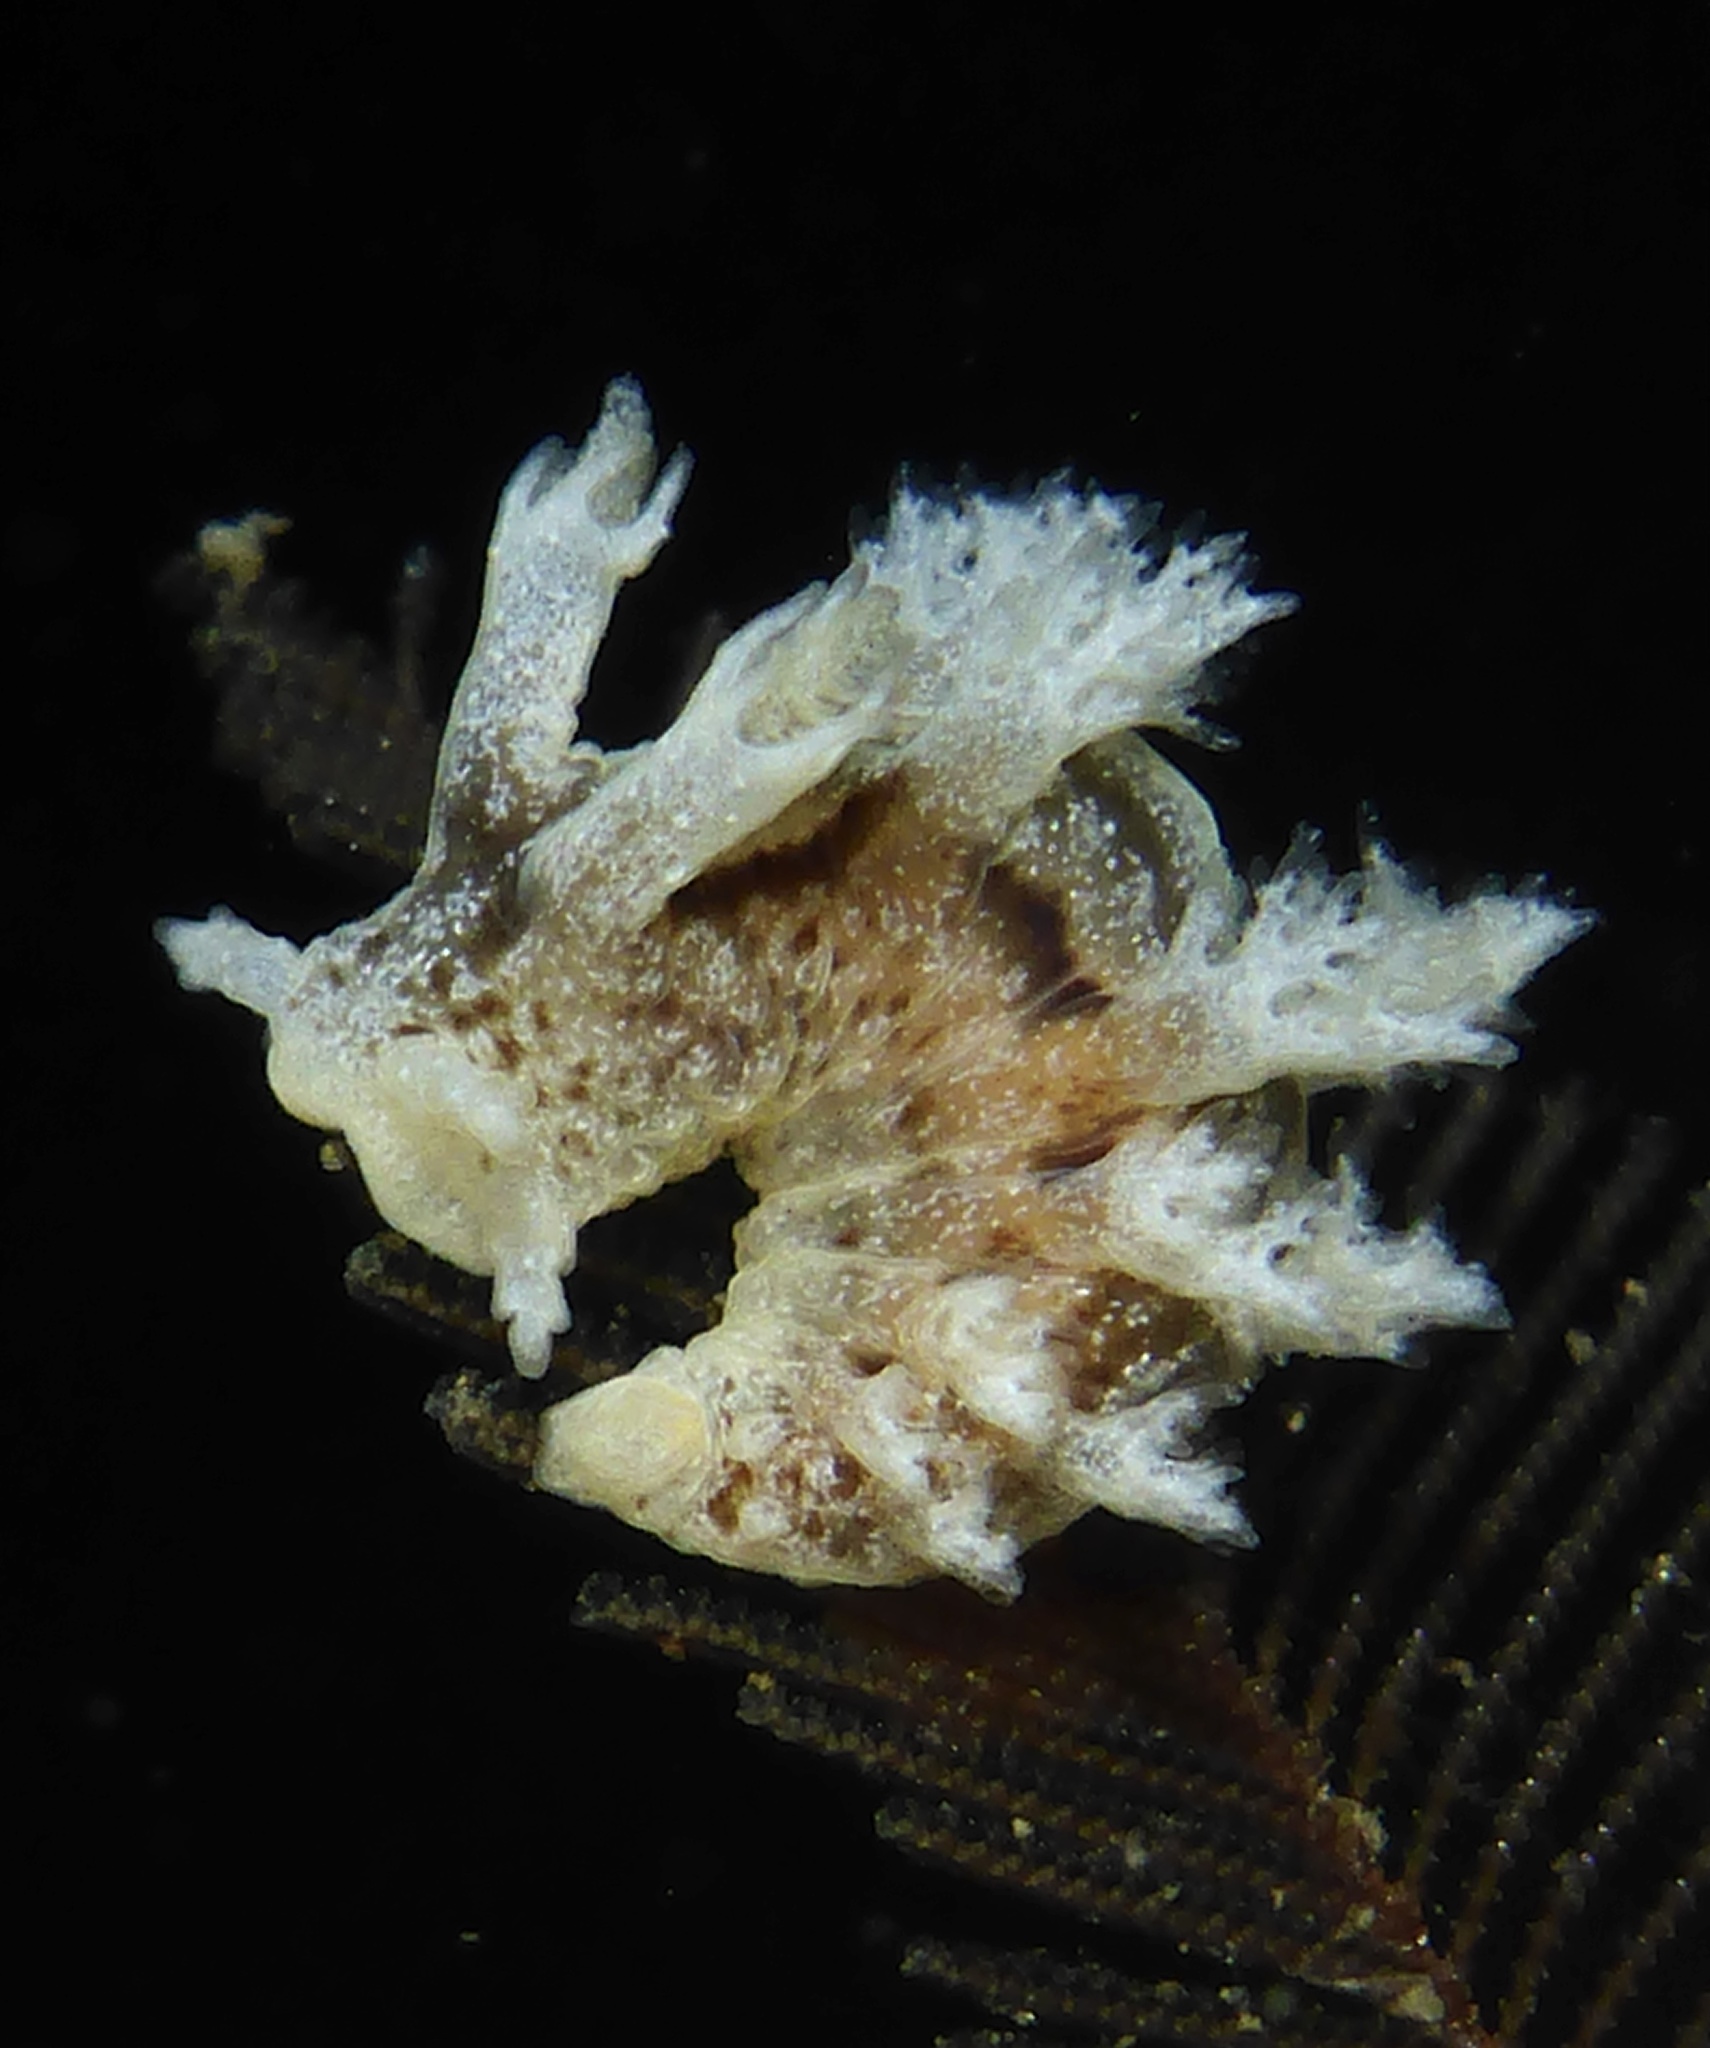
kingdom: Animalia
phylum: Mollusca
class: Gastropoda
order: Nudibranchia
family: Dendronotidae
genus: Dendronotus
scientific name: Dendronotus subramosus
